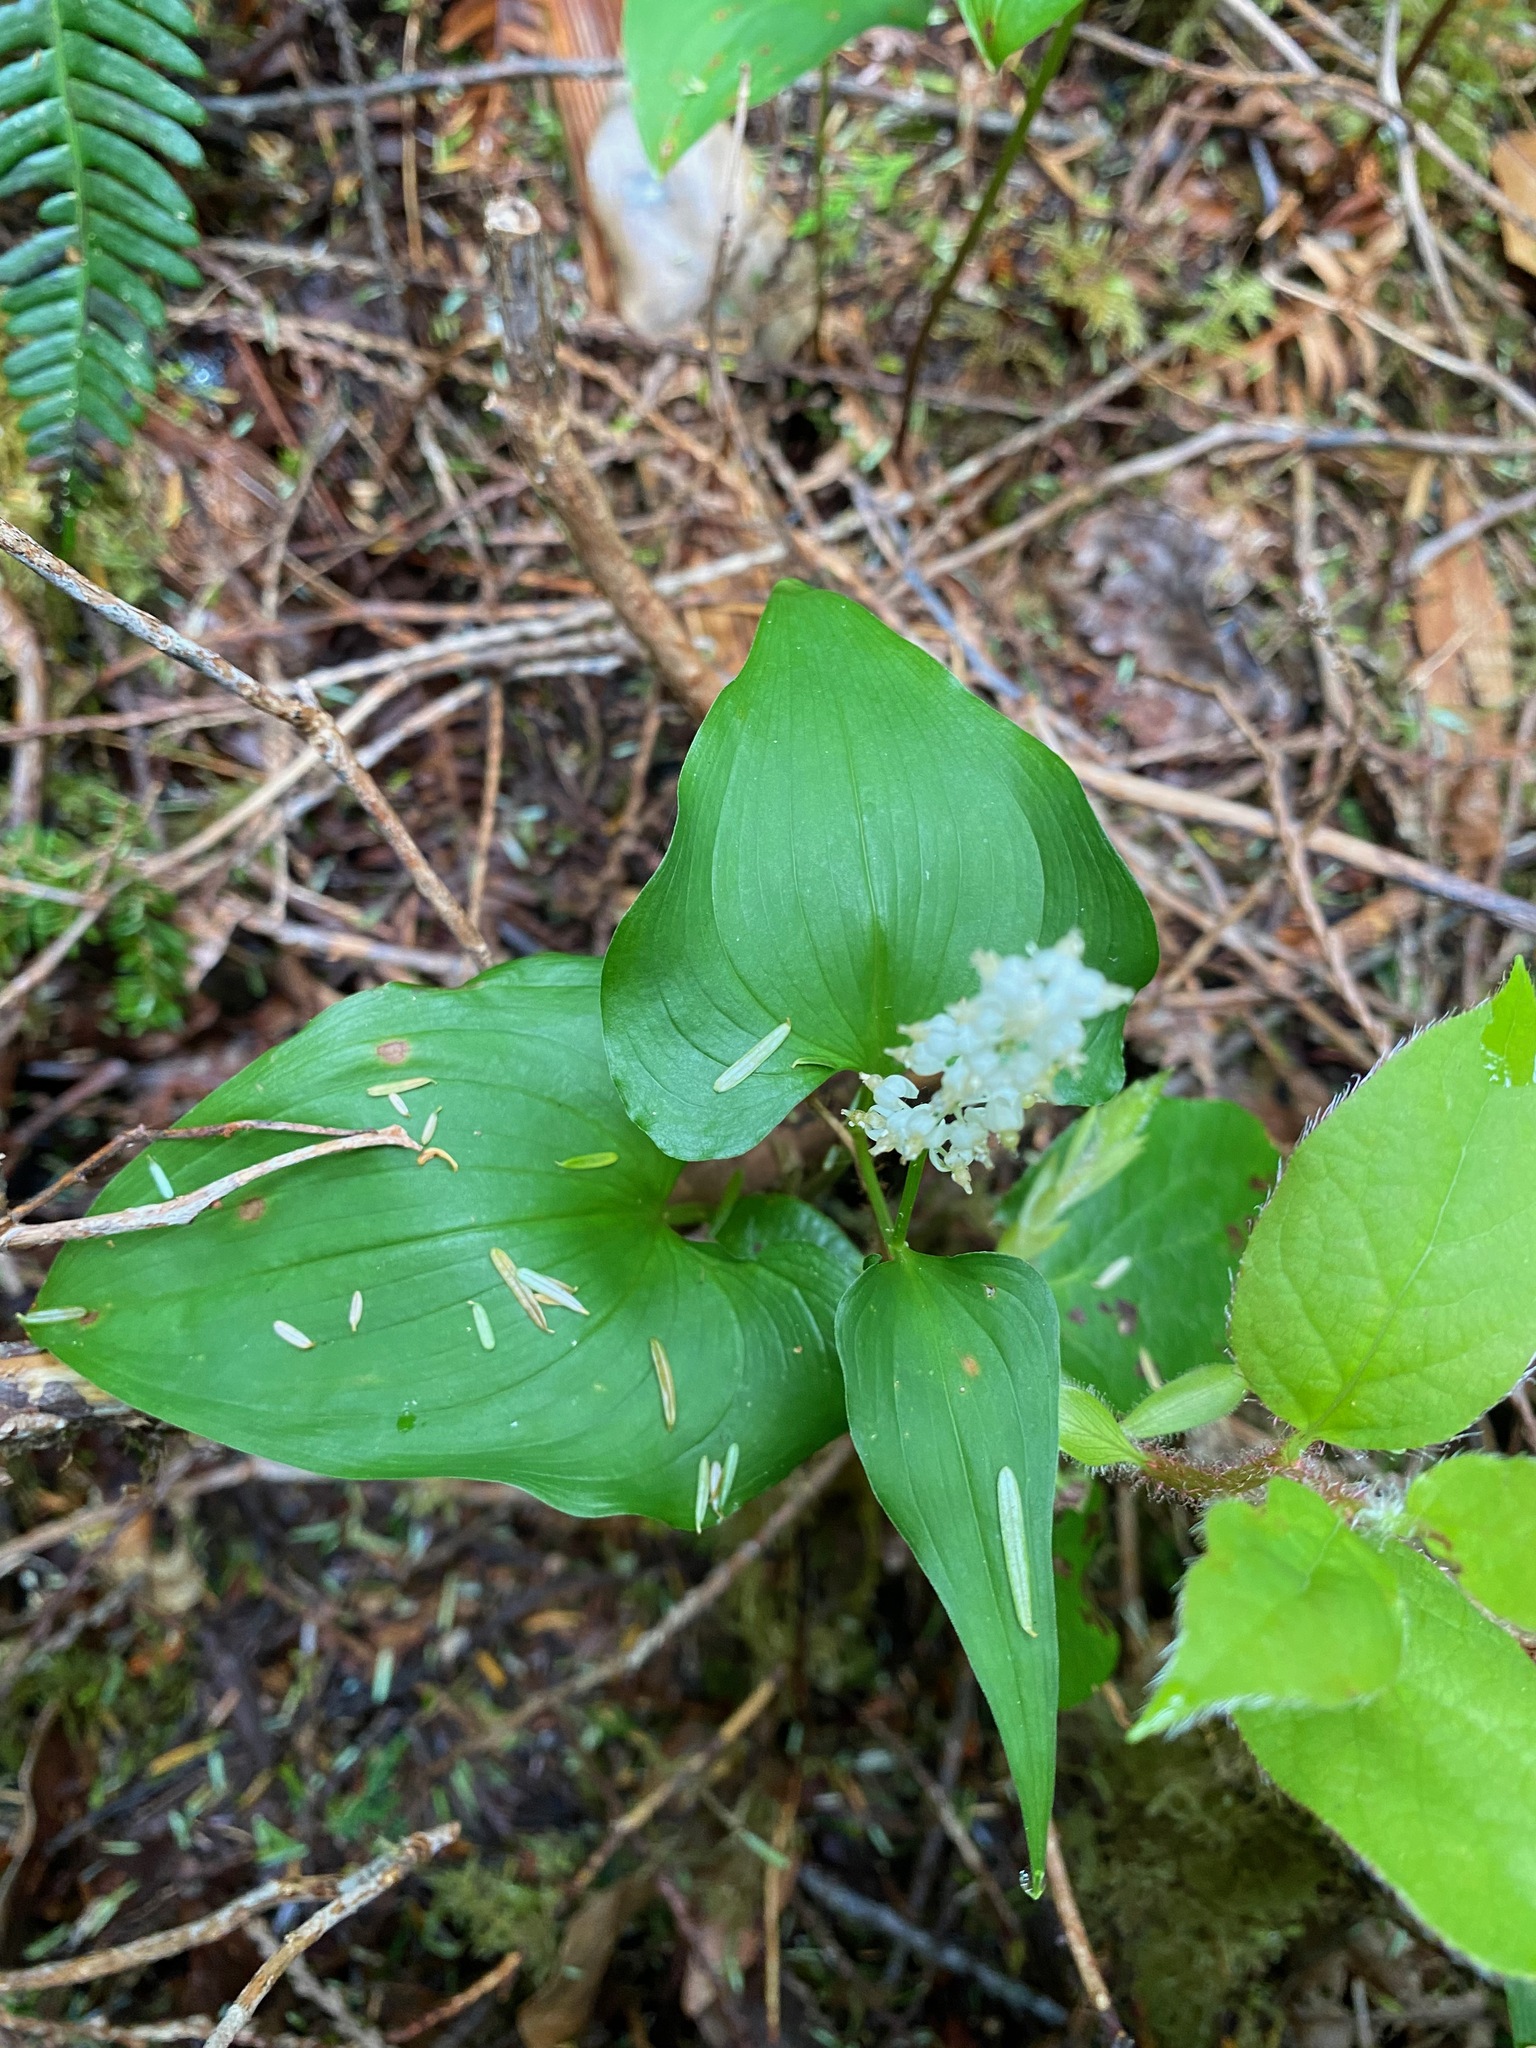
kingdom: Plantae
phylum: Tracheophyta
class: Liliopsida
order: Asparagales
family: Asparagaceae
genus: Maianthemum
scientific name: Maianthemum dilatatum
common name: False lily-of-the-valley
